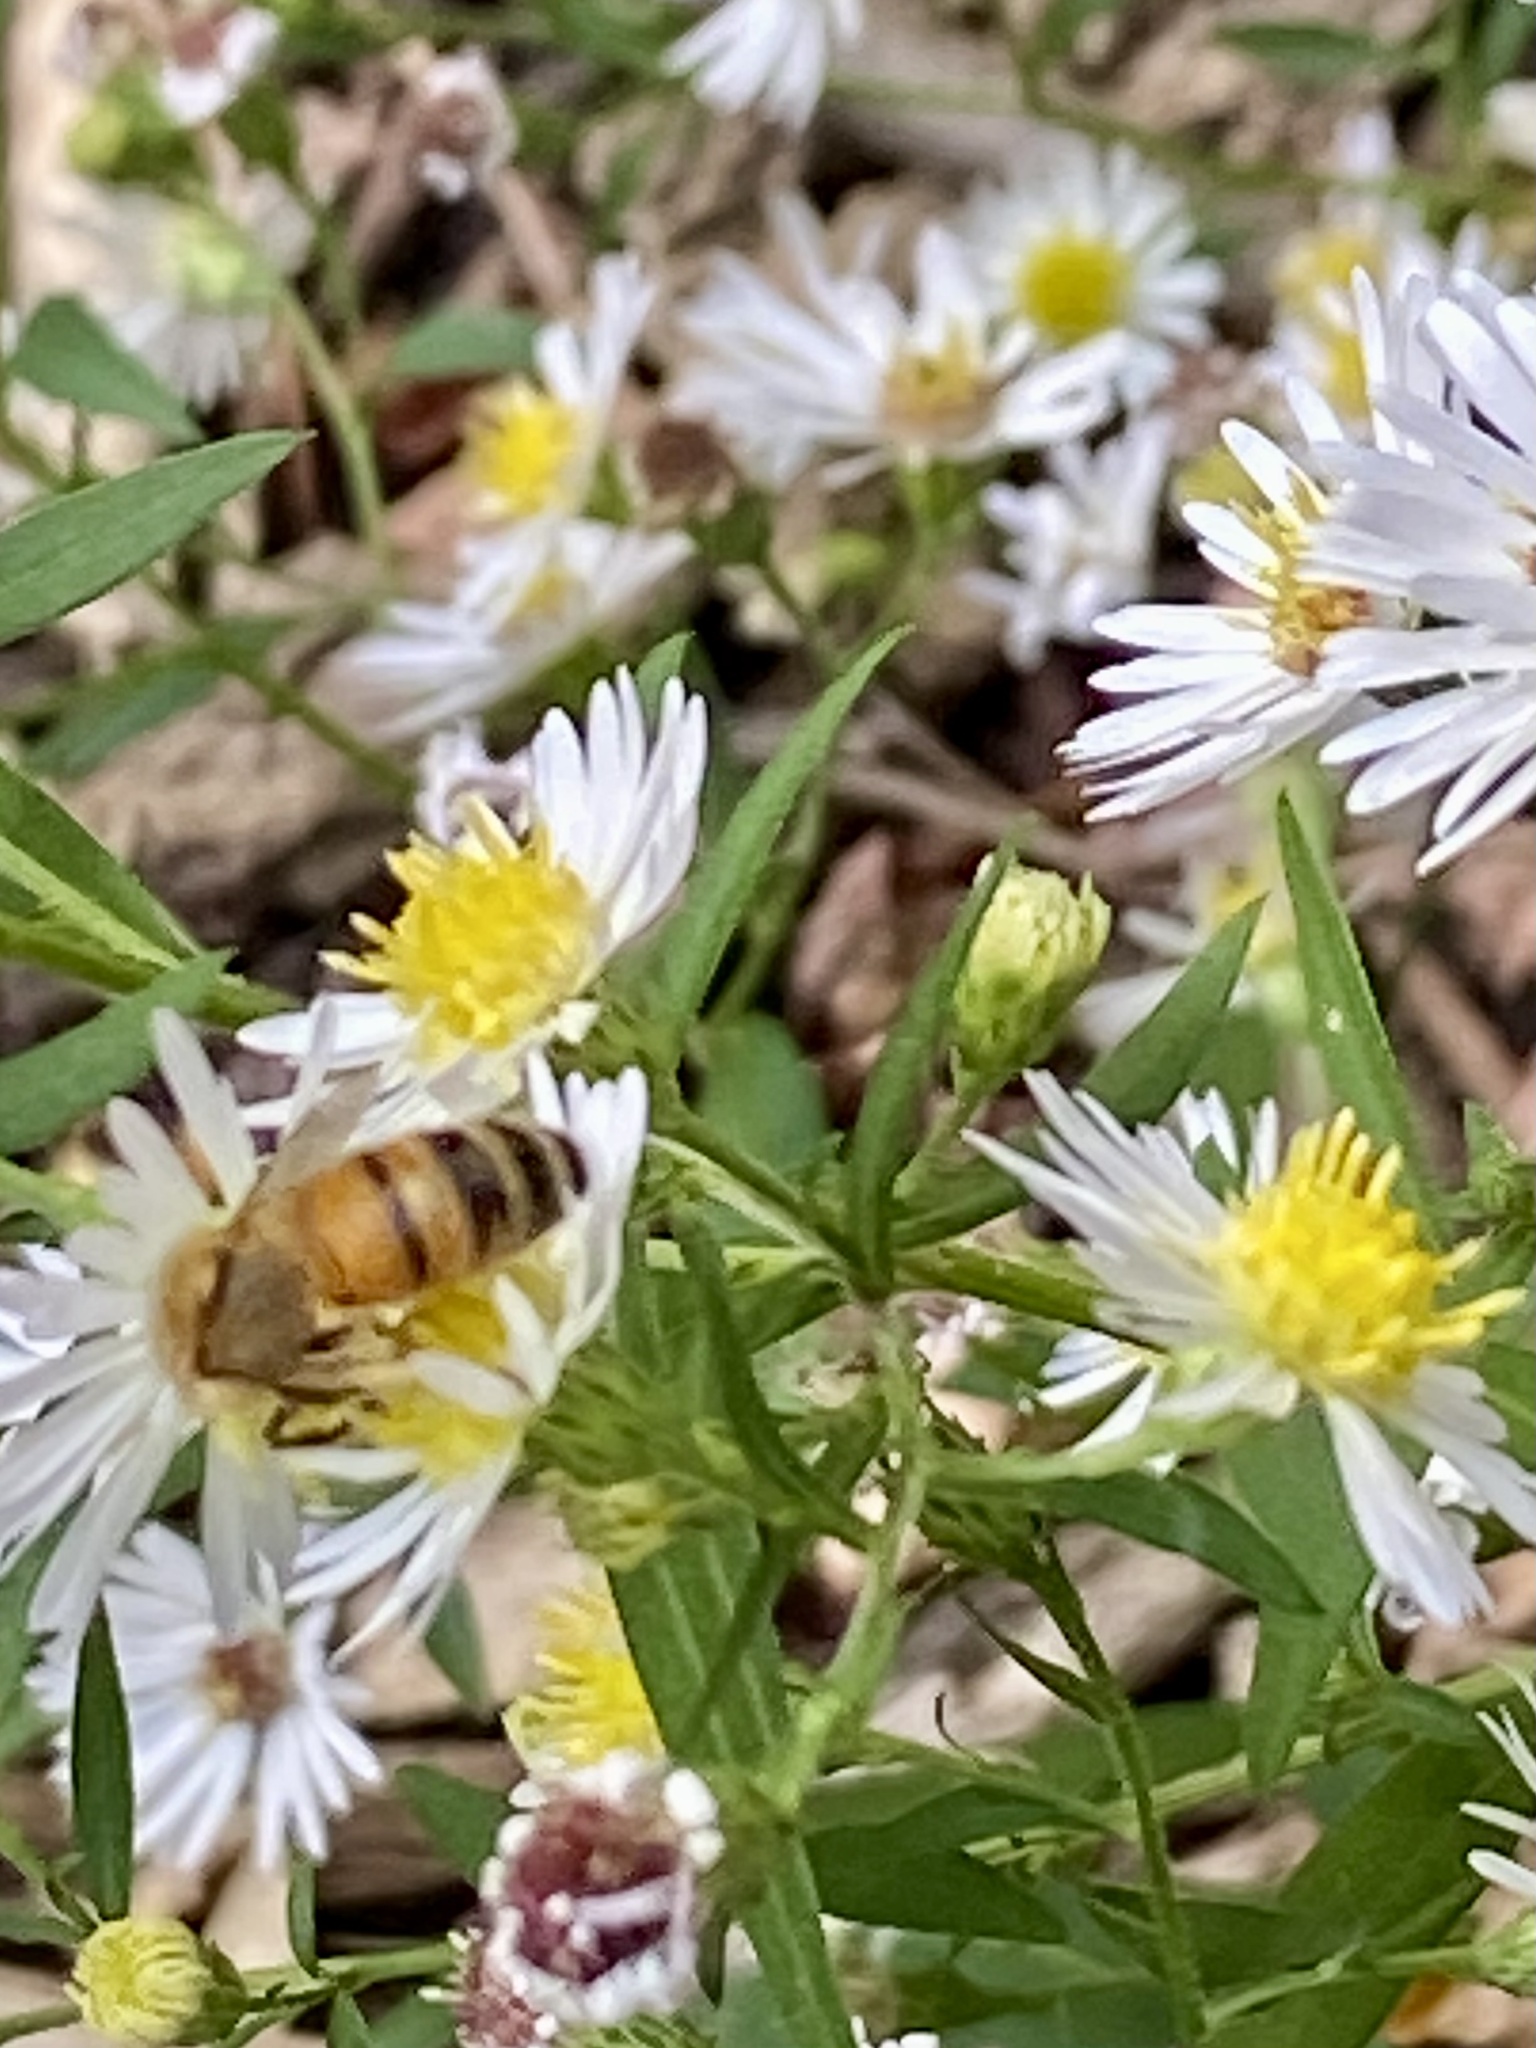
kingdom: Animalia
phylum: Arthropoda
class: Insecta
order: Hymenoptera
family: Apidae
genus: Apis
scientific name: Apis mellifera
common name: Honey bee
